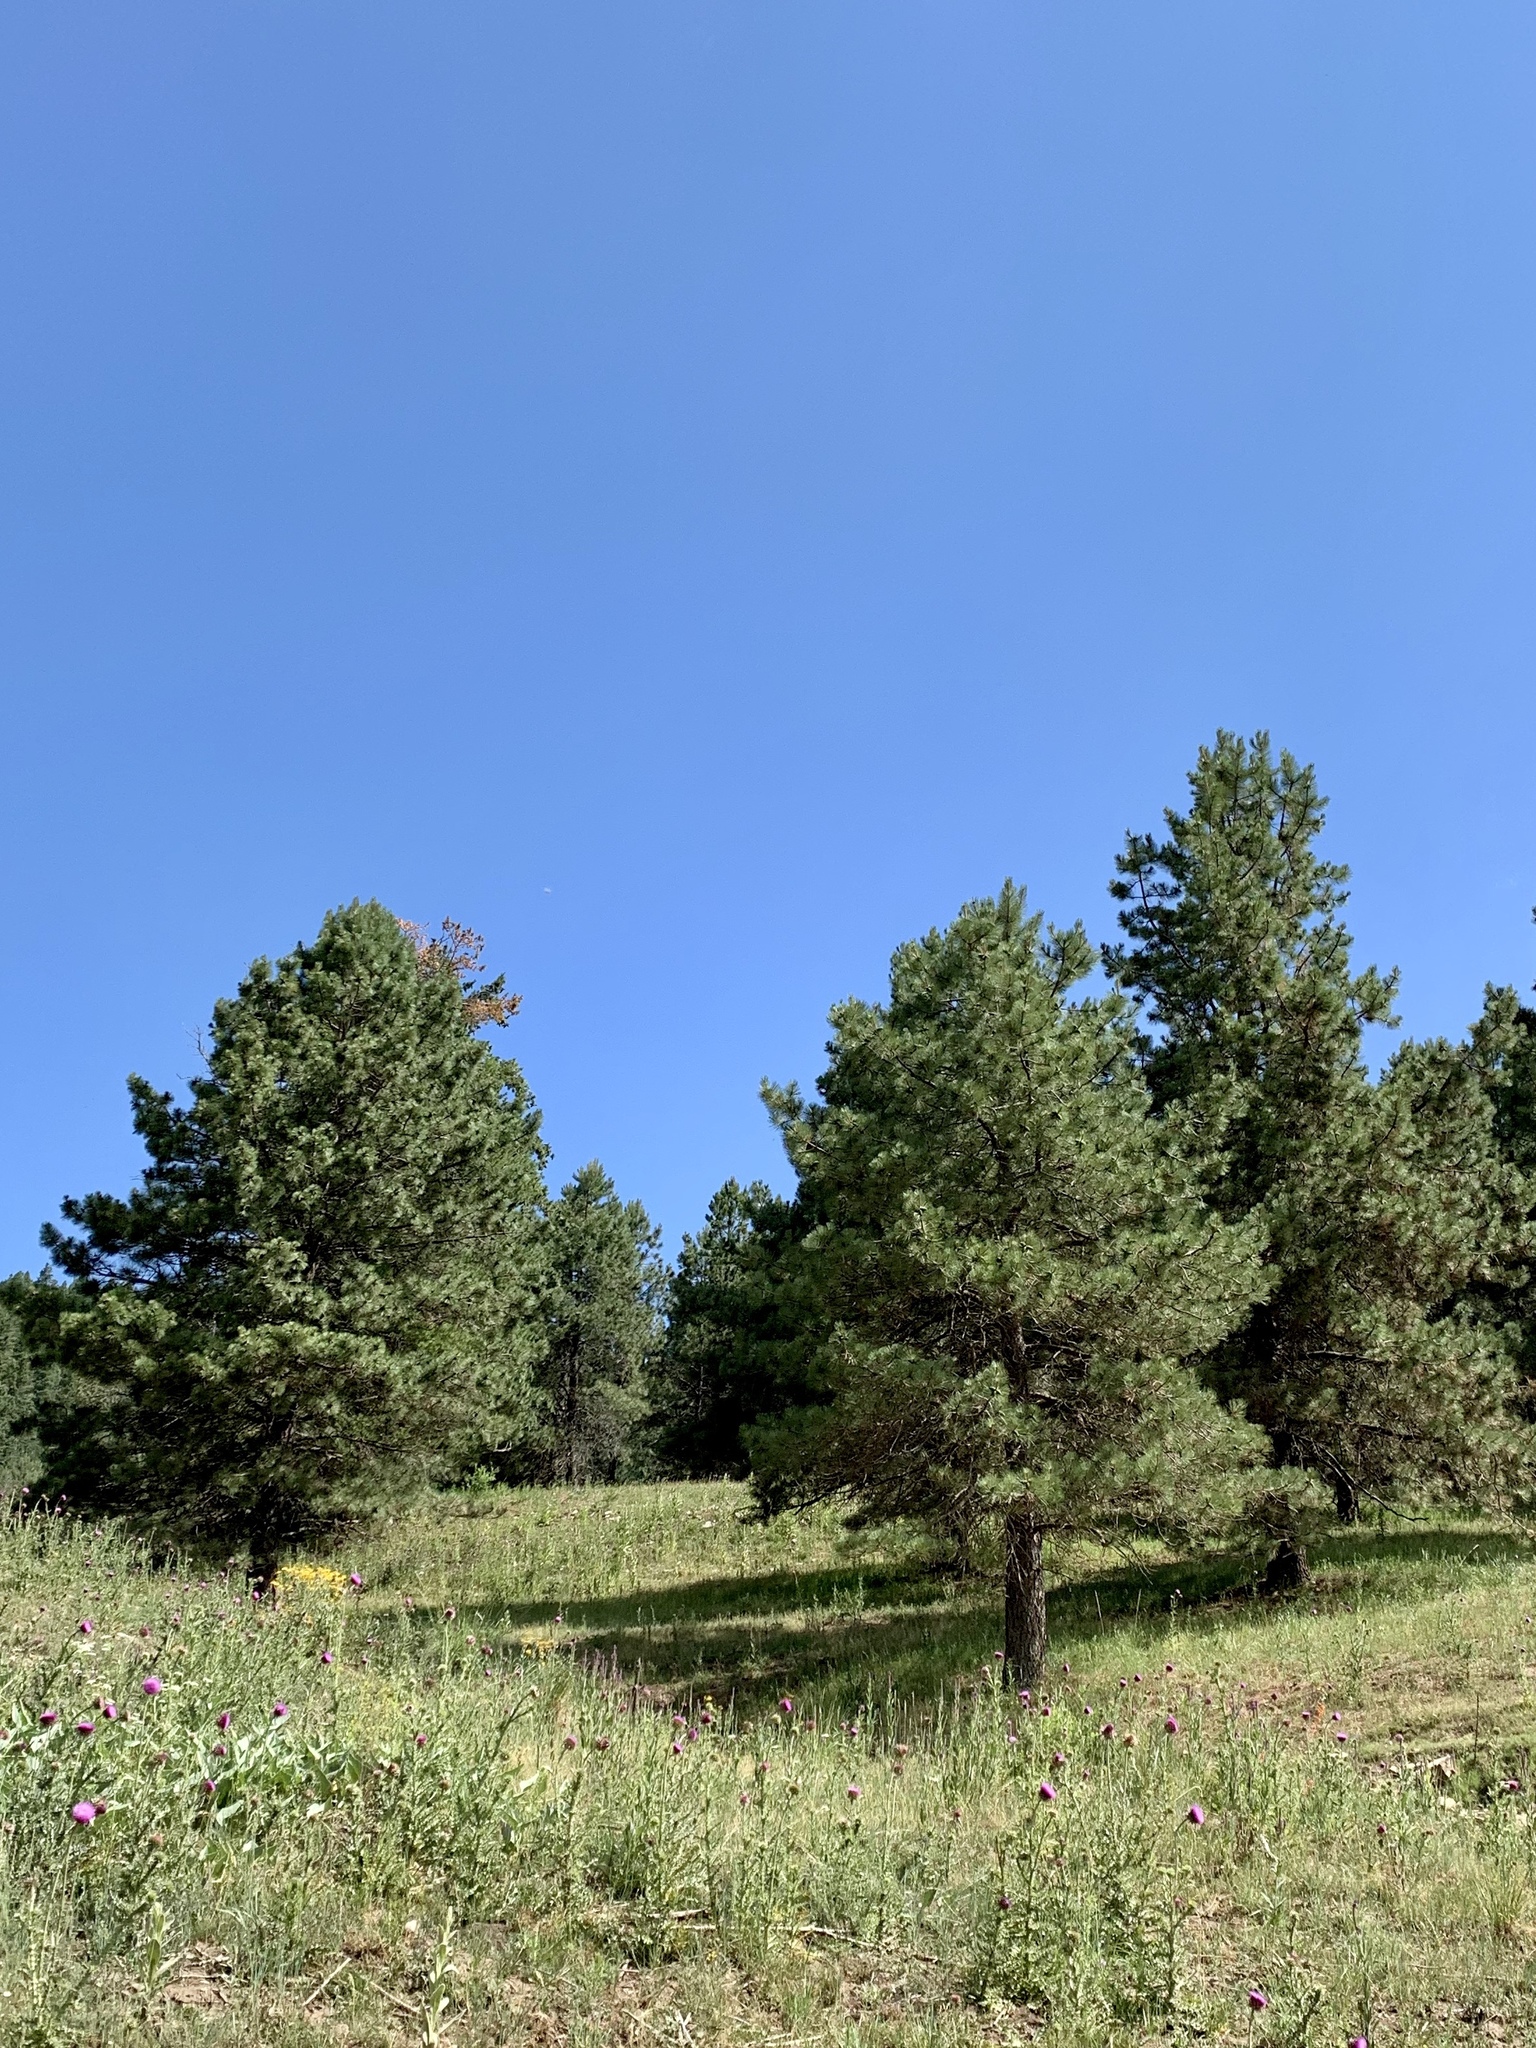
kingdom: Plantae
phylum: Tracheophyta
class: Pinopsida
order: Pinales
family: Pinaceae
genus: Pinus
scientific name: Pinus ponderosa
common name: Western yellow-pine
